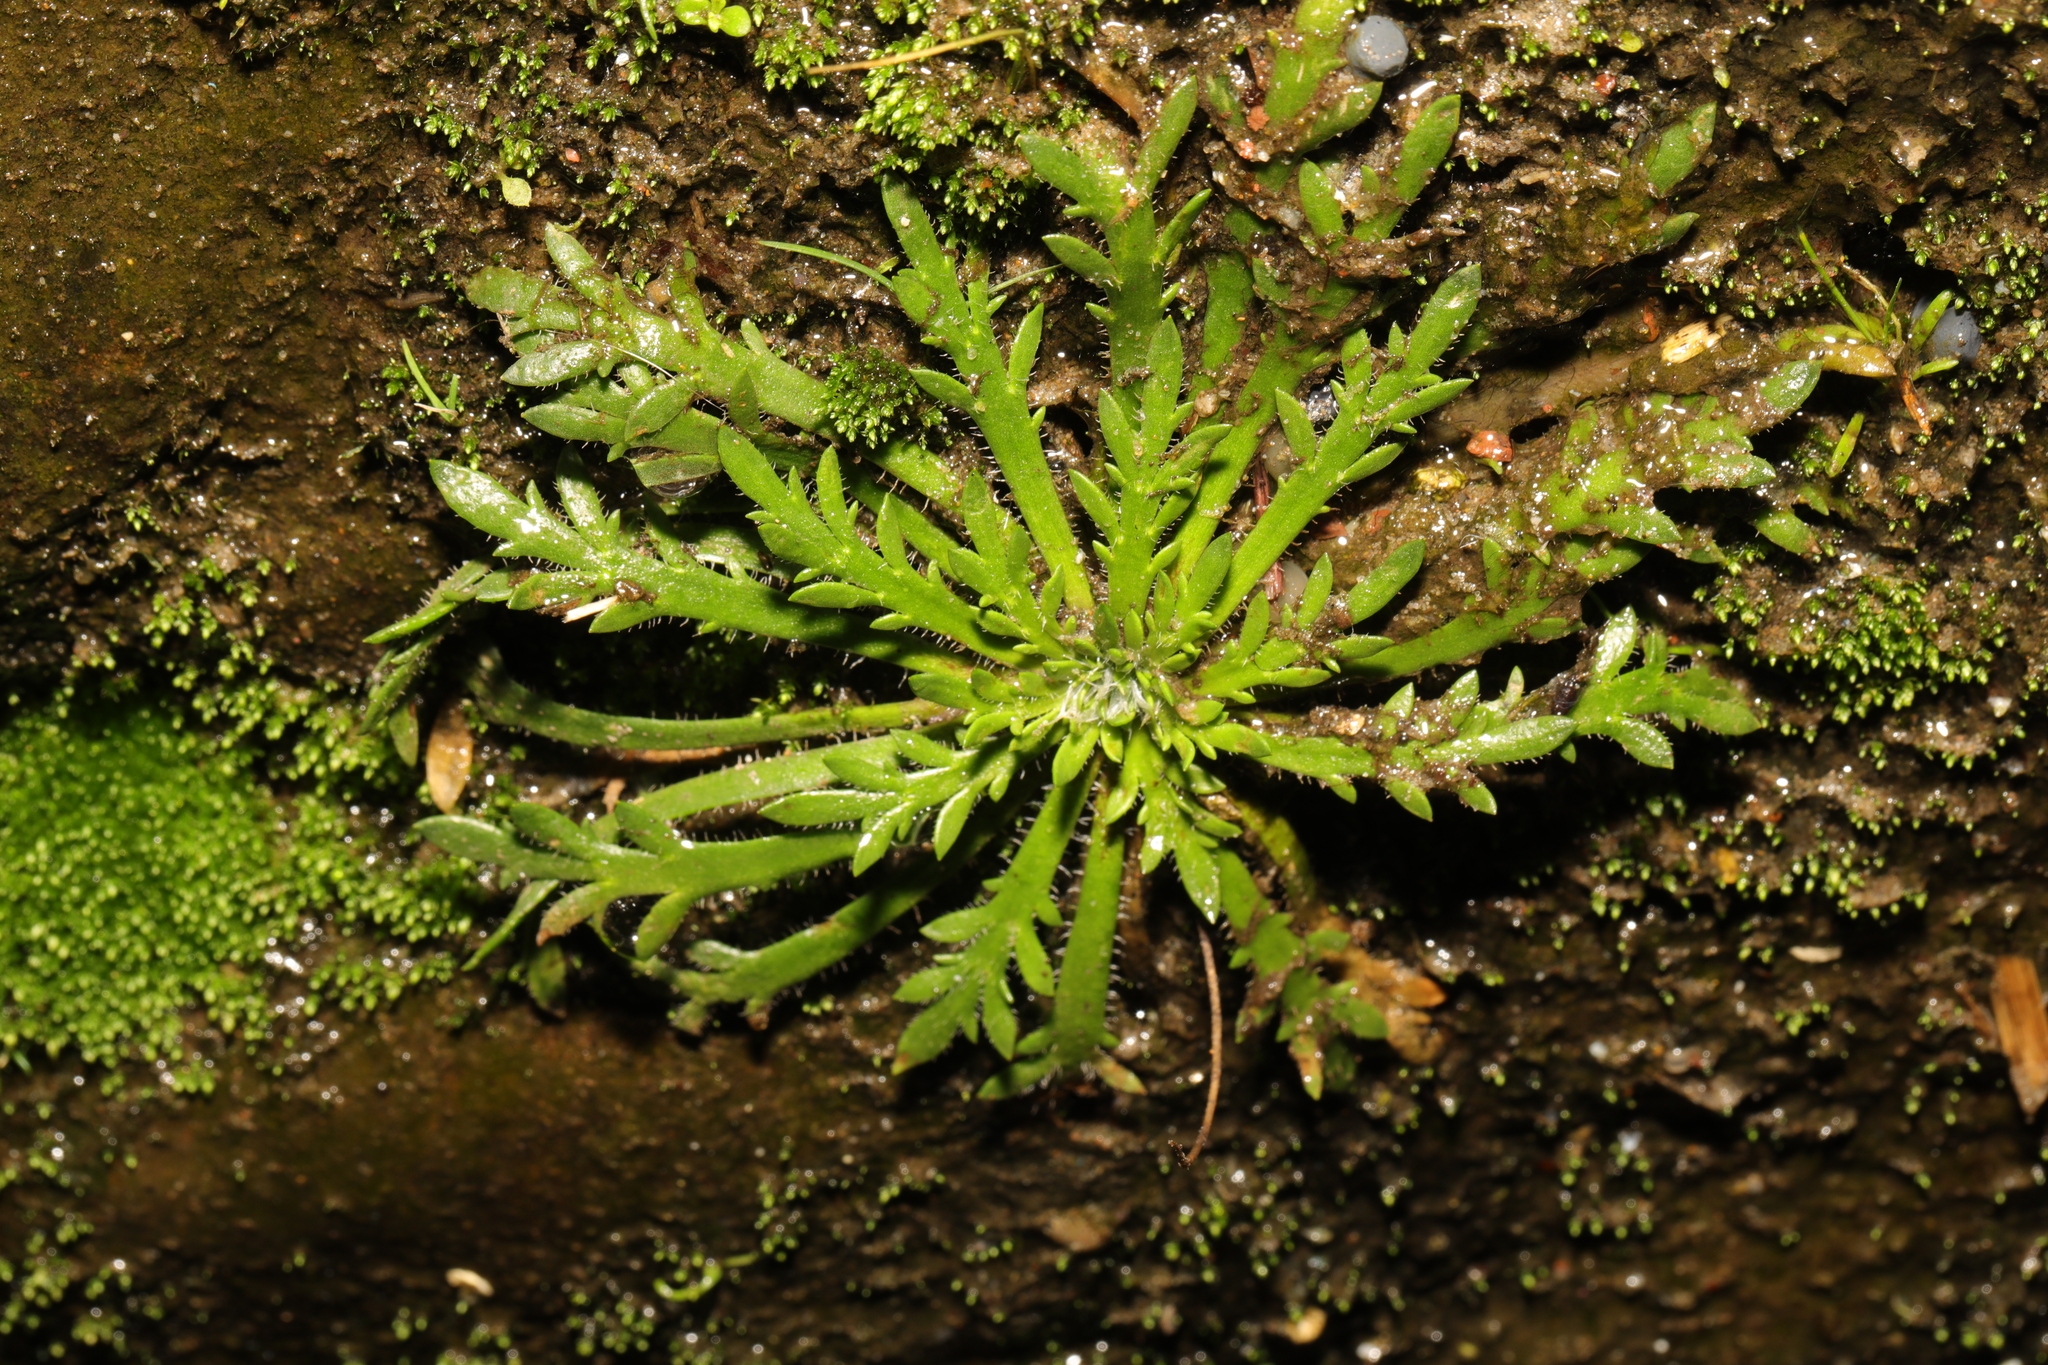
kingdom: Plantae
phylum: Tracheophyta
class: Magnoliopsida
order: Lamiales
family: Plantaginaceae
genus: Plantago
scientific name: Plantago coronopus
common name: Buck's-horn plantain
